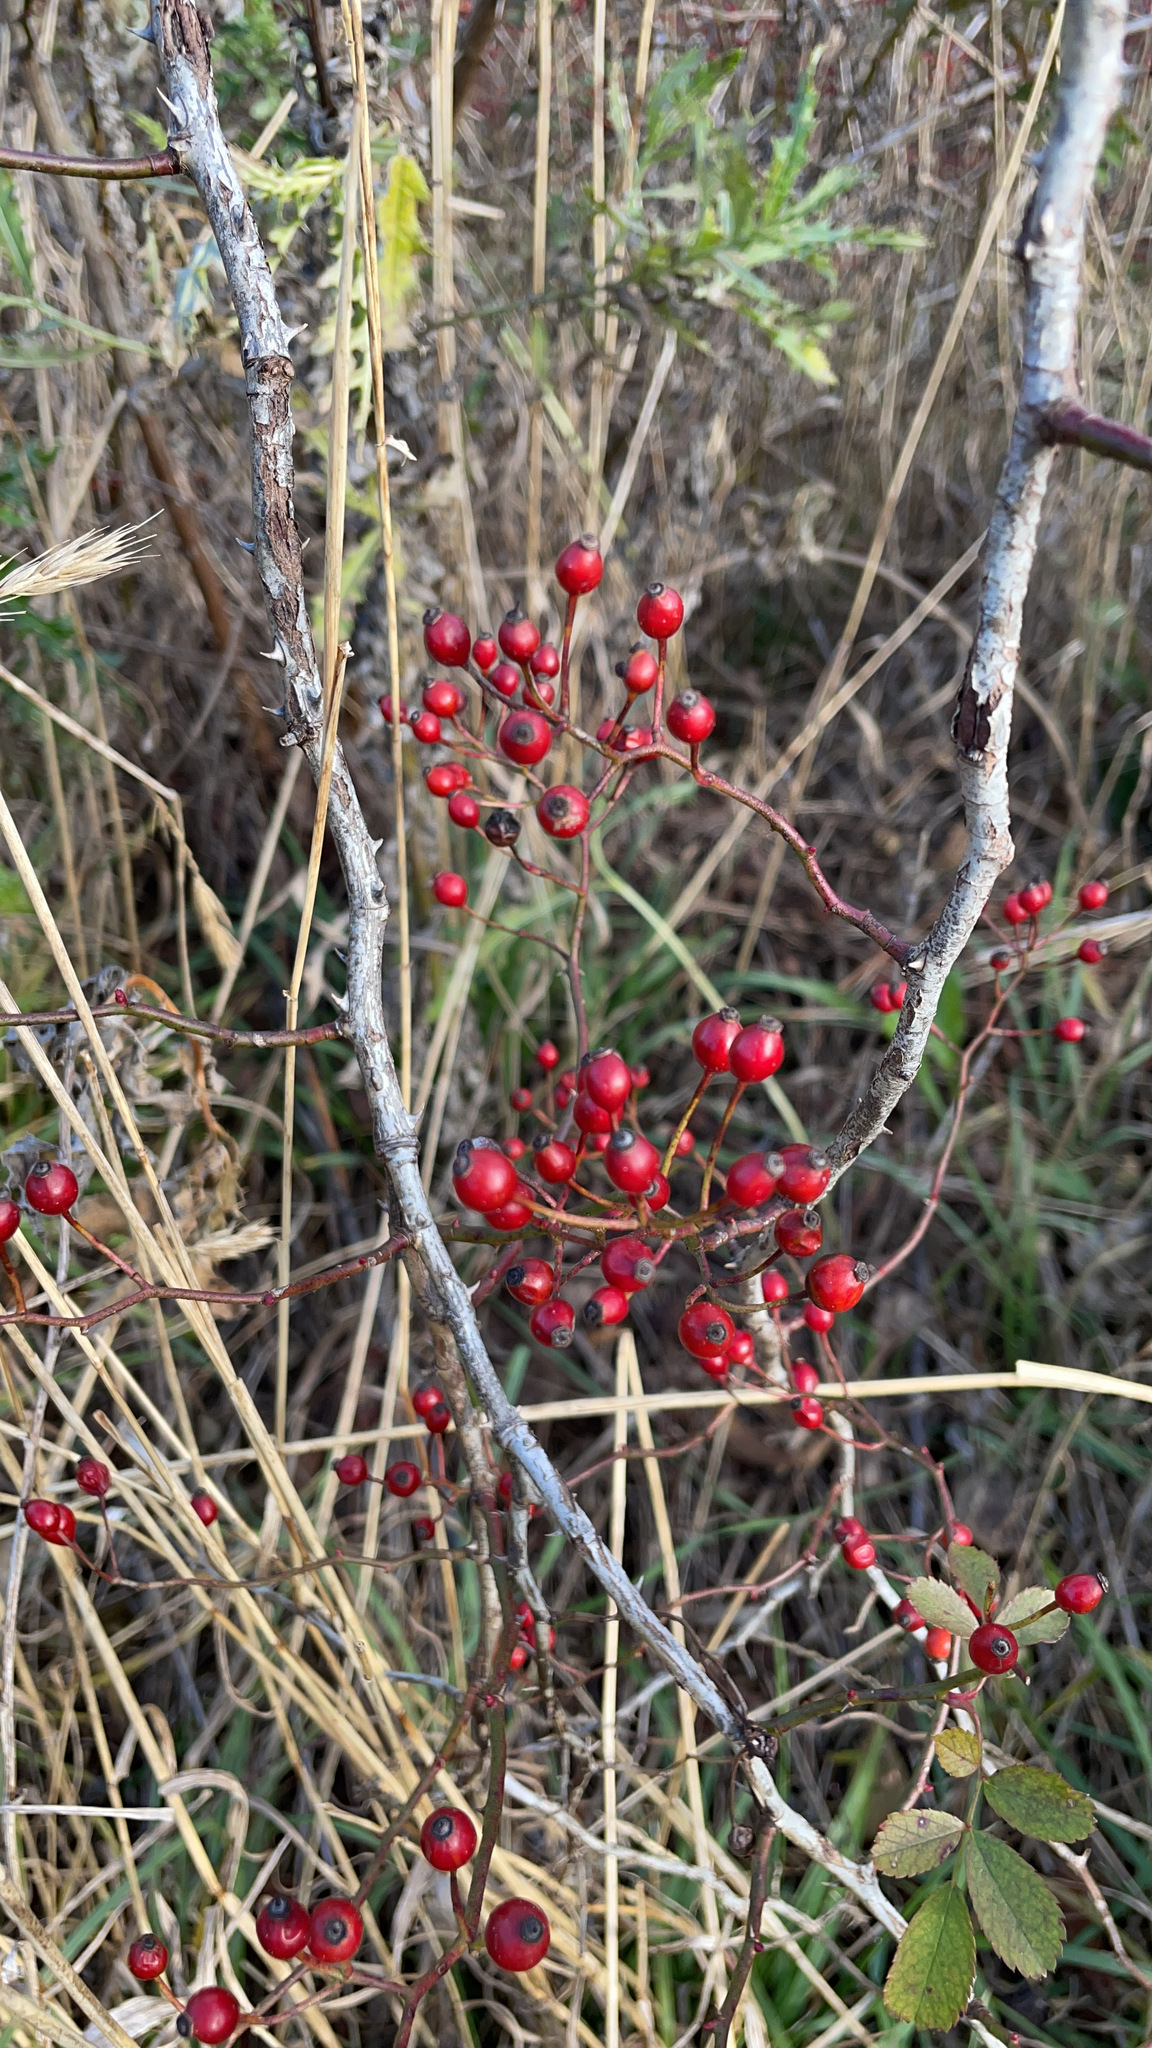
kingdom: Plantae
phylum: Tracheophyta
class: Magnoliopsida
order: Rosales
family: Rosaceae
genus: Rosa
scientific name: Rosa multiflora
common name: Multiflora rose
